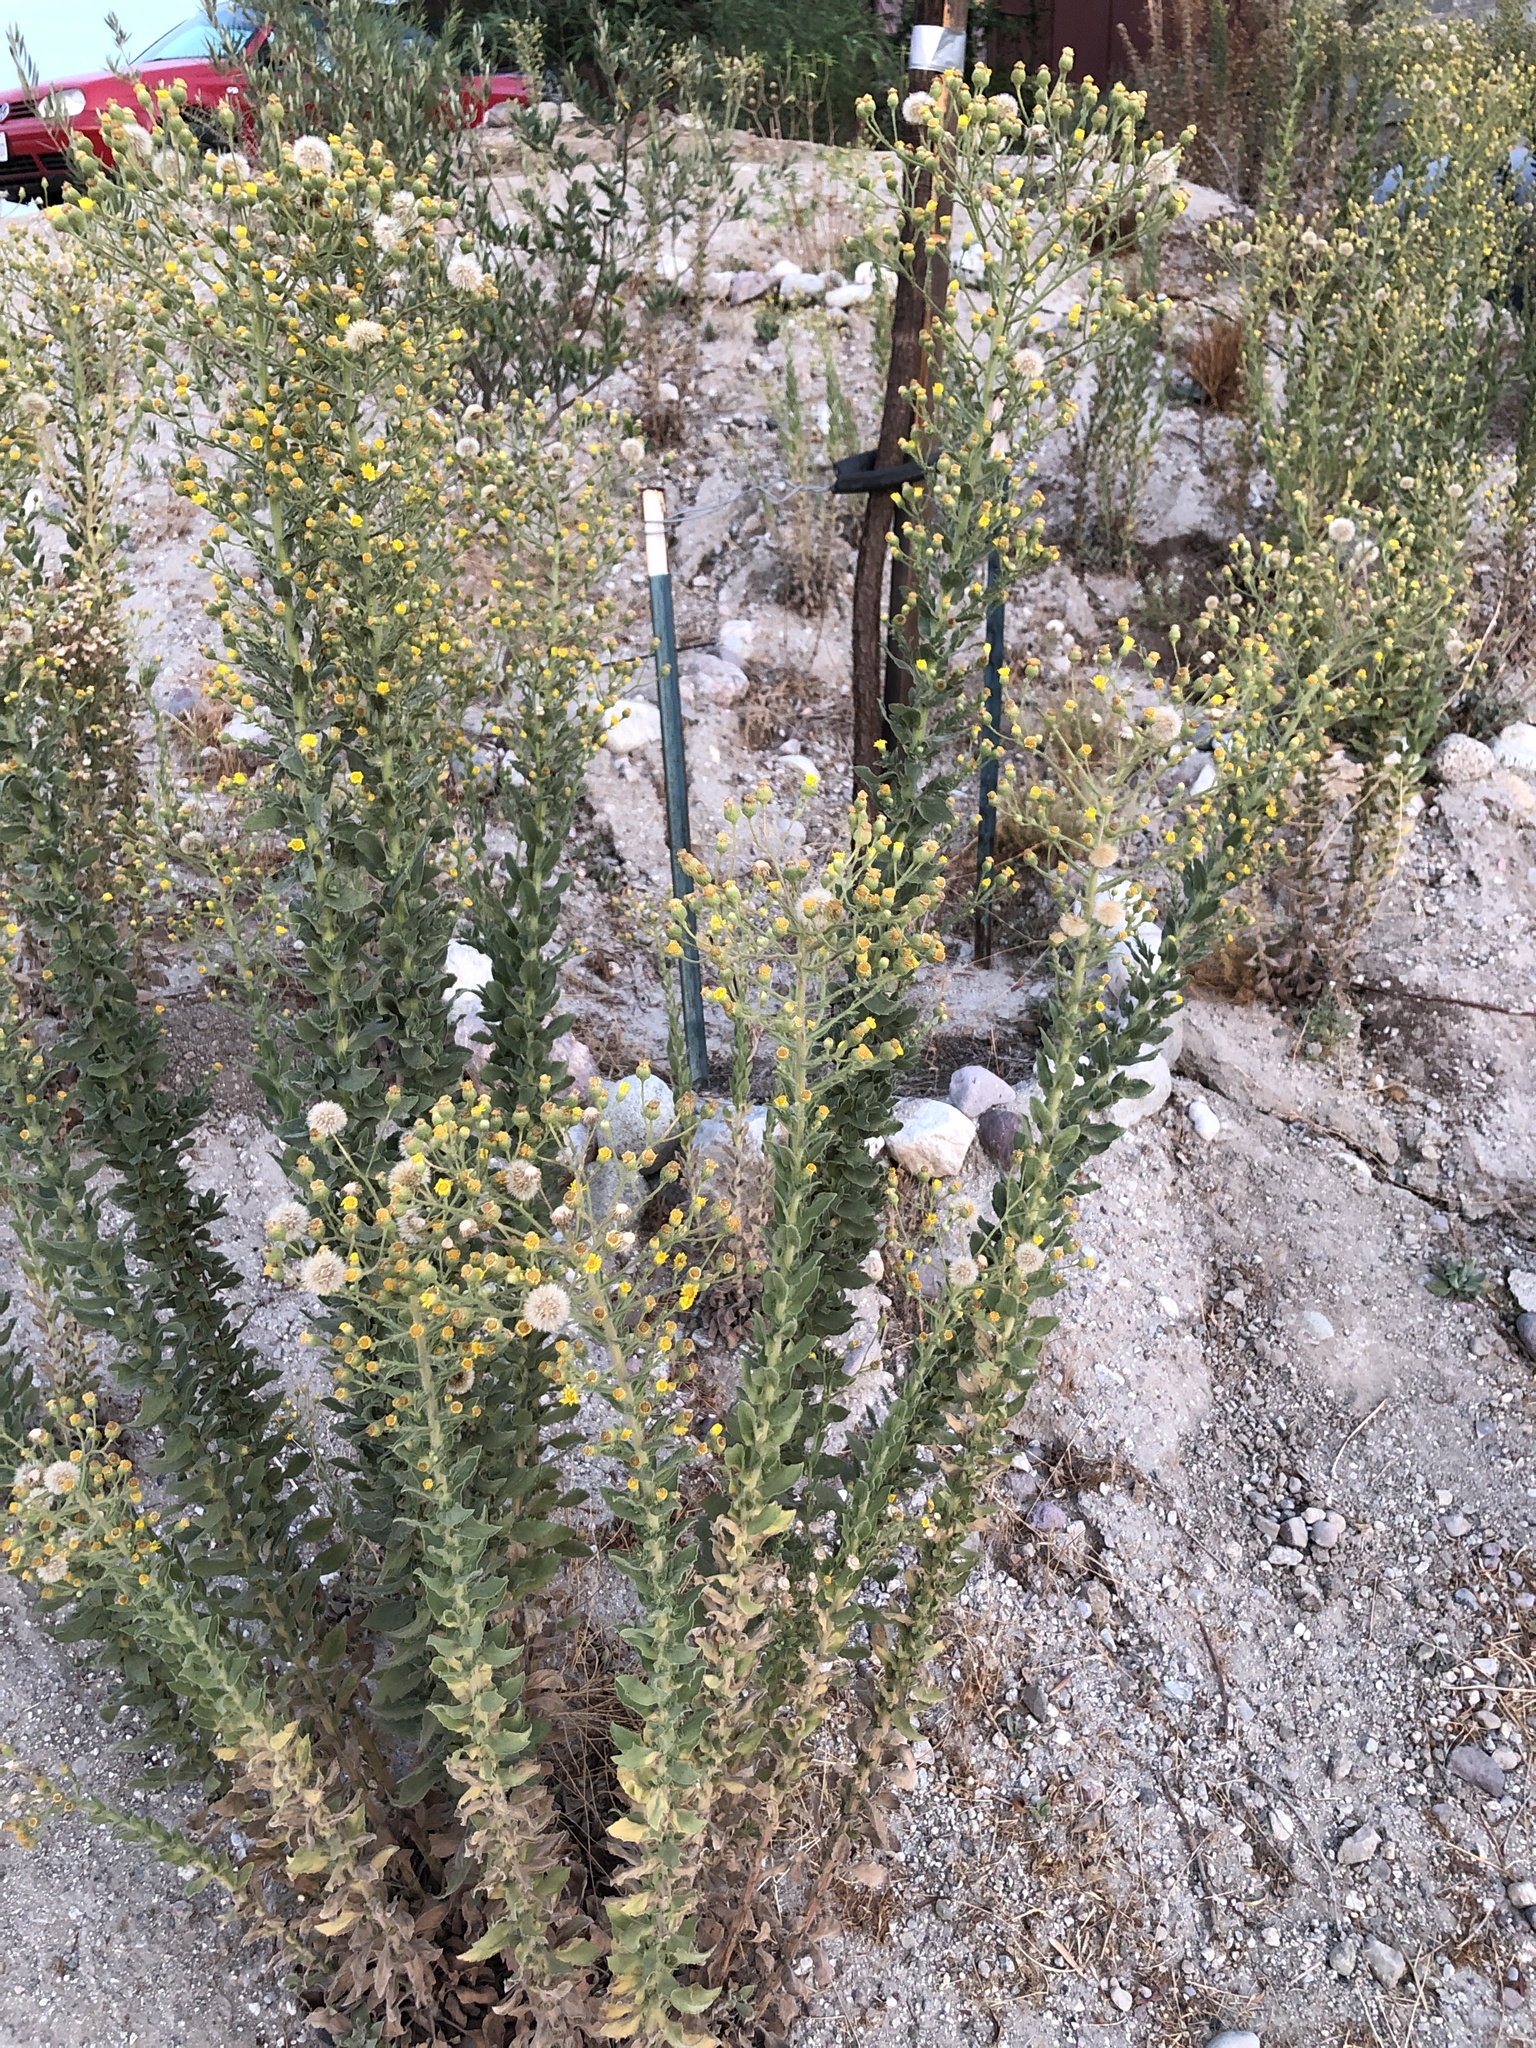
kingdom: Plantae
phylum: Tracheophyta
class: Magnoliopsida
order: Asterales
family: Asteraceae
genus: Heterotheca
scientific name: Heterotheca grandiflora
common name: Telegraphweed
